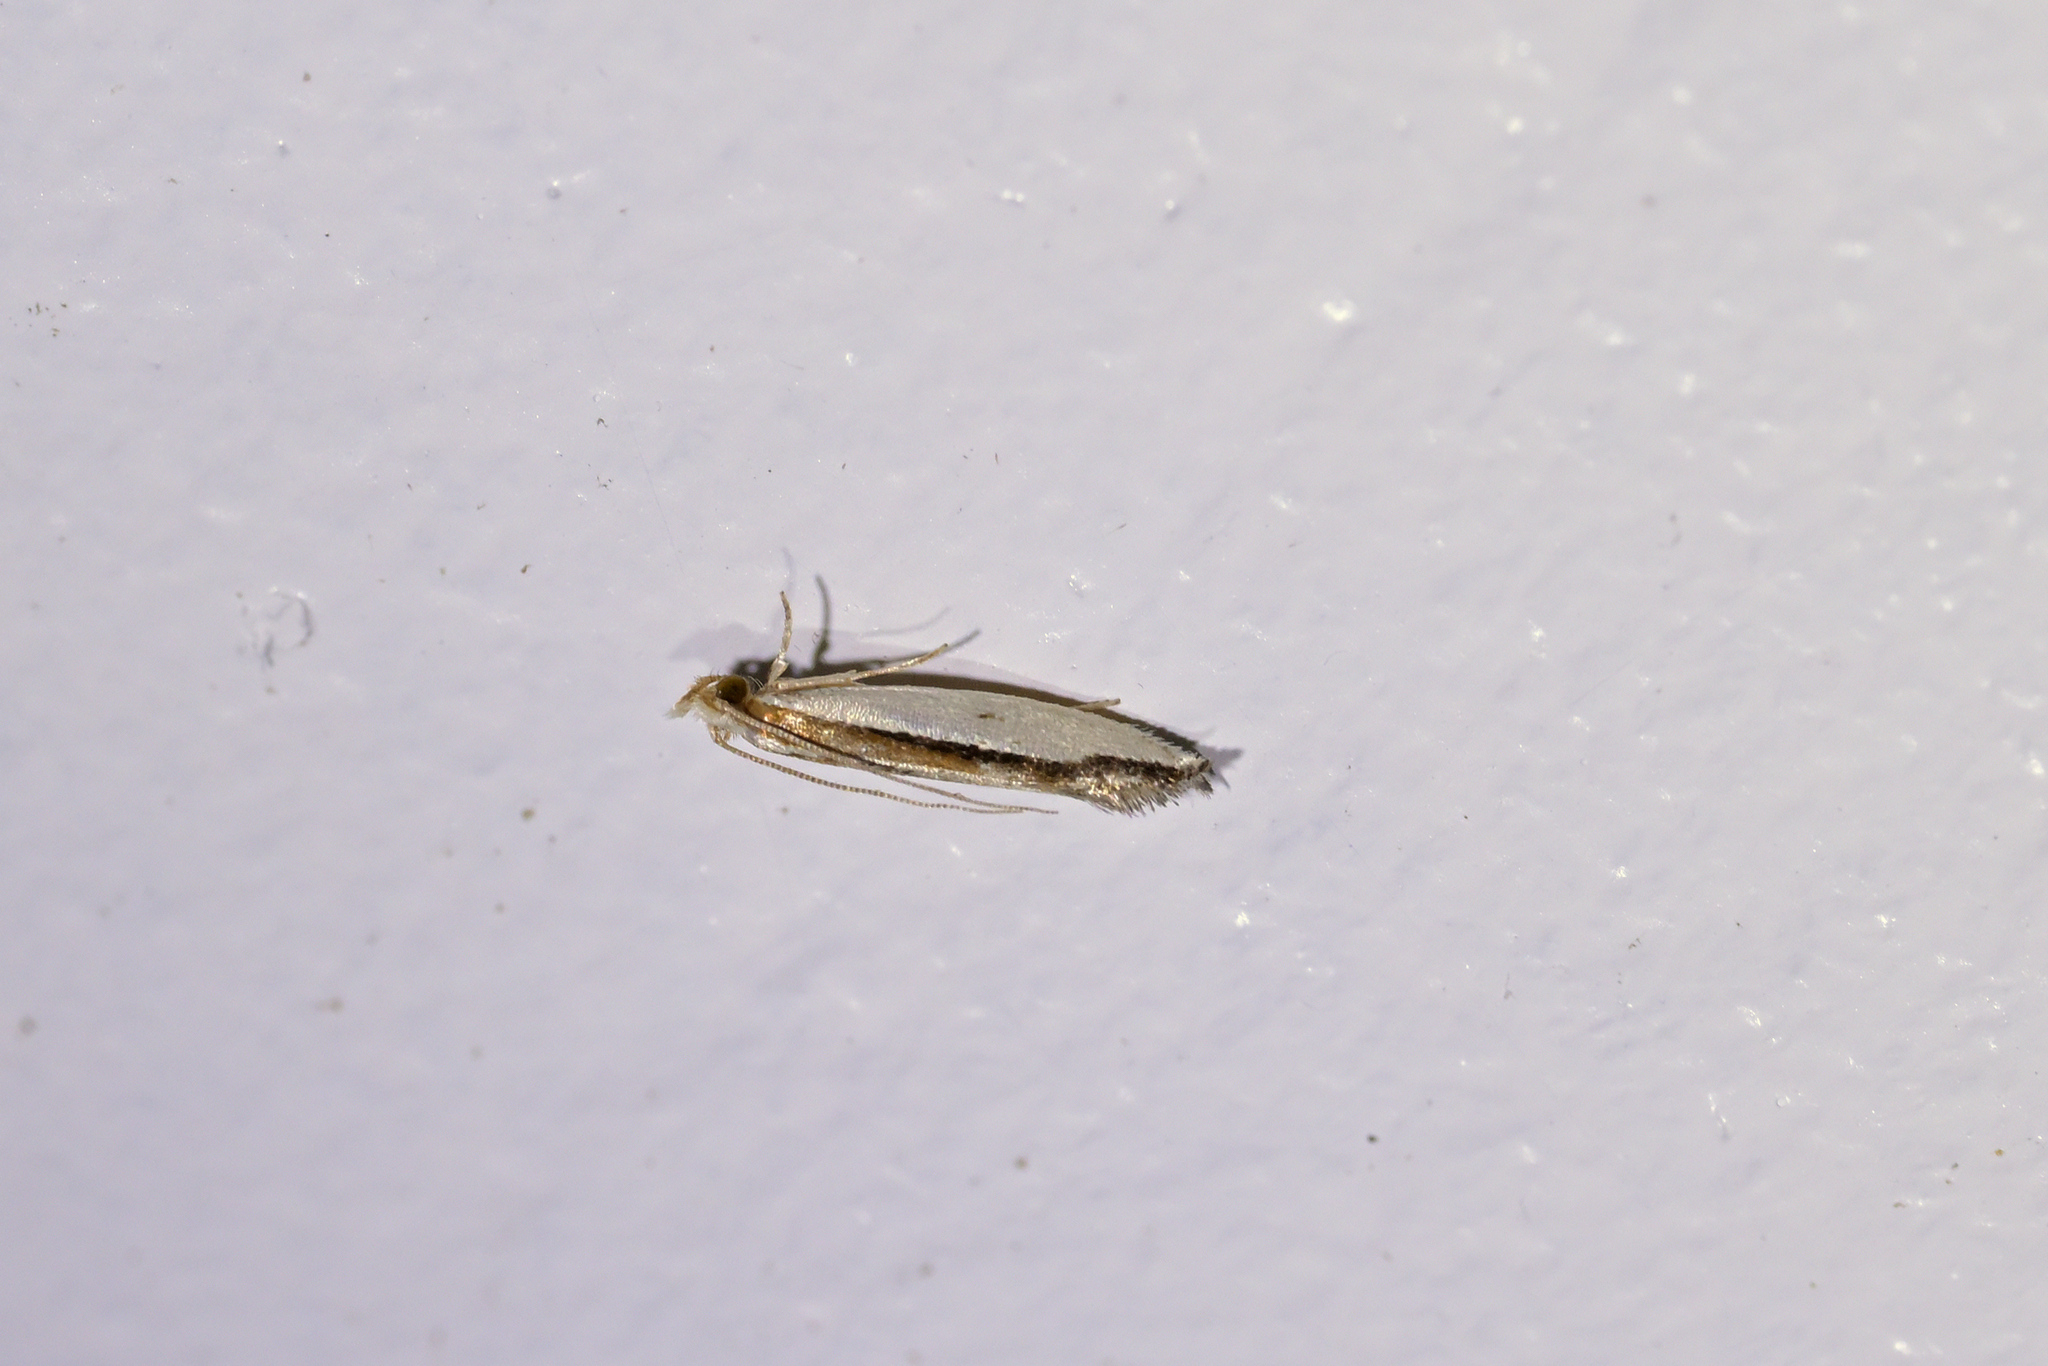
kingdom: Animalia
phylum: Arthropoda
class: Insecta
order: Lepidoptera
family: Tineidae
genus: Erechthias
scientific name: Erechthias chionodira
